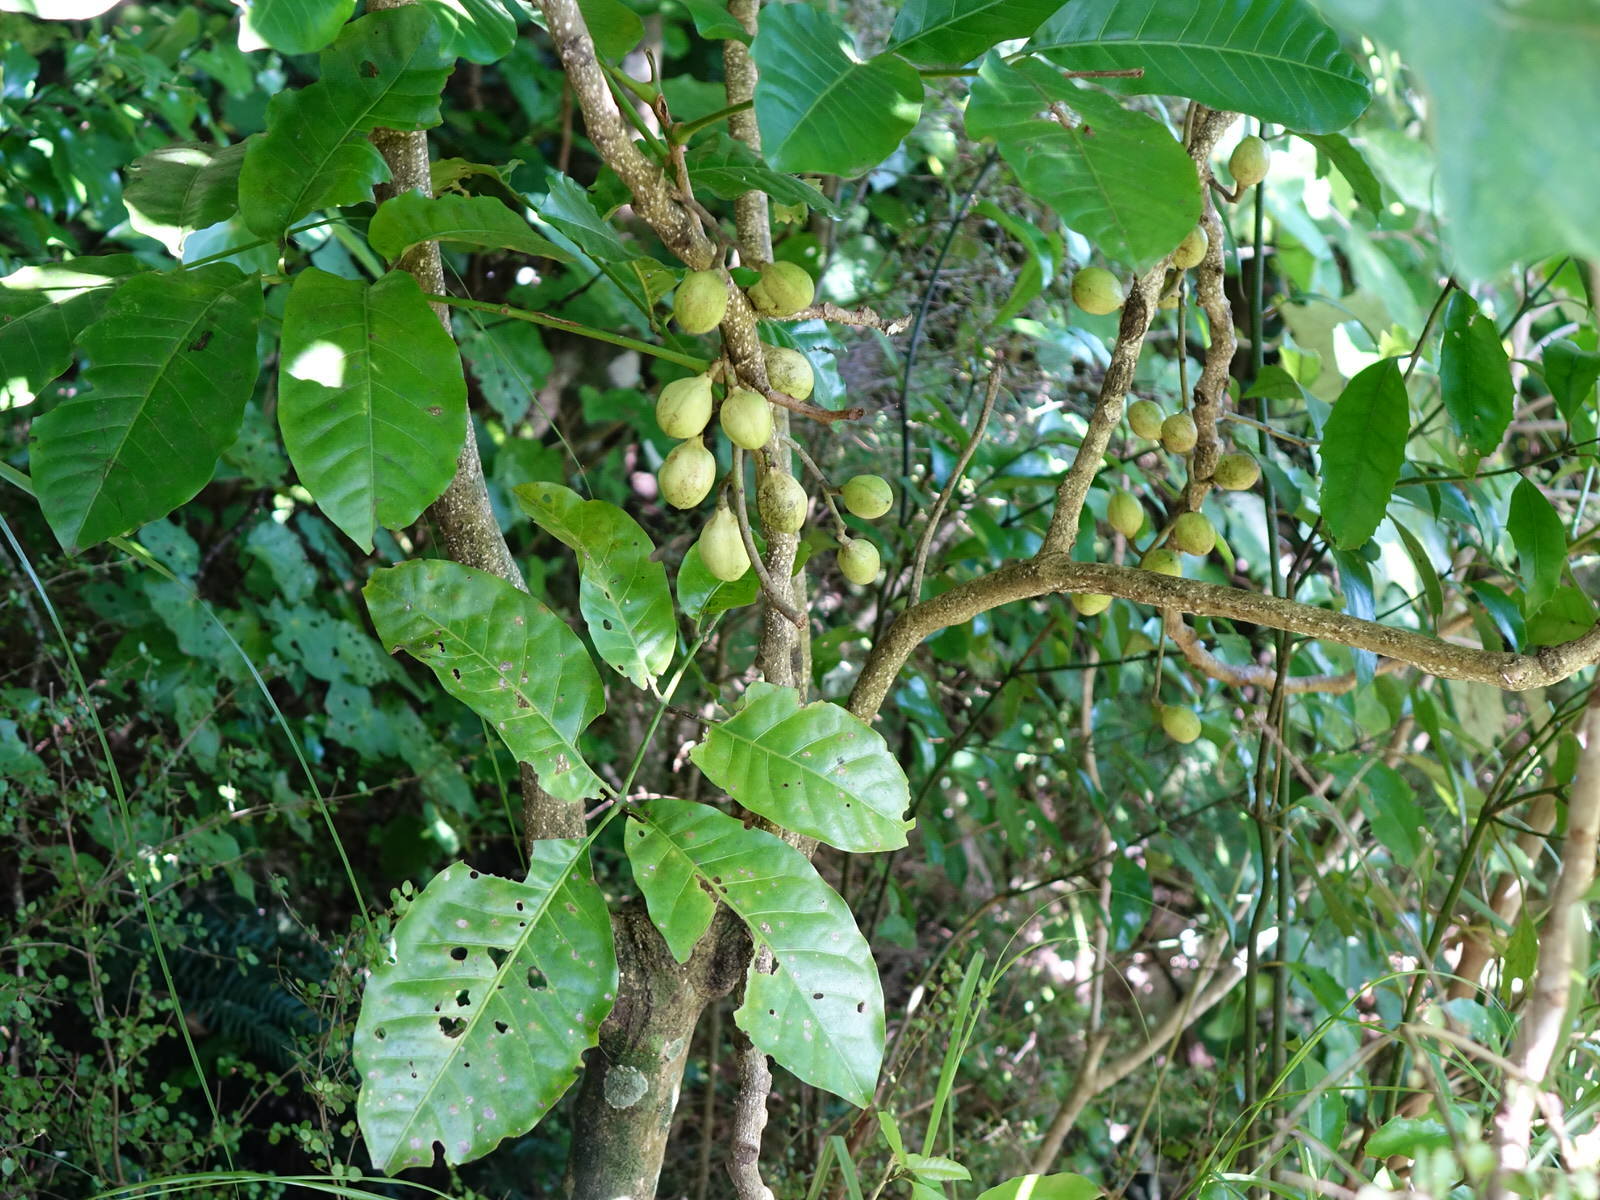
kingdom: Plantae
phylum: Tracheophyta
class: Magnoliopsida
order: Sapindales
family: Meliaceae
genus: Didymocheton
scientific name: Didymocheton spectabilis
